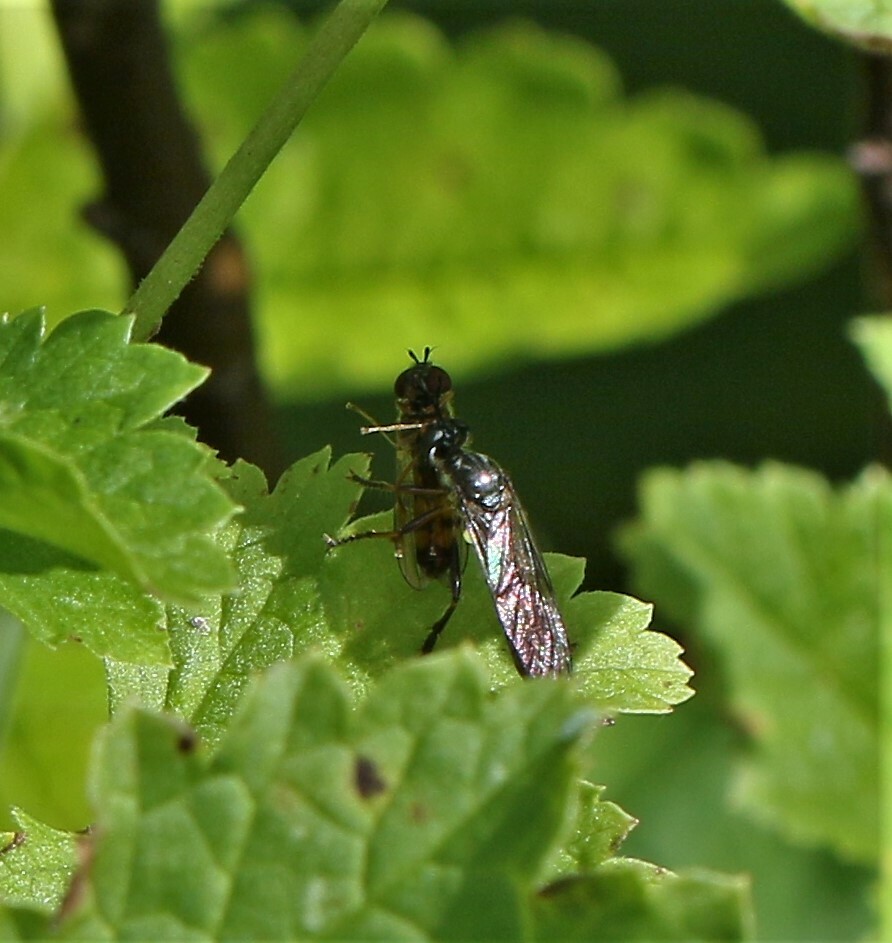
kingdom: Animalia
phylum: Arthropoda
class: Insecta
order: Diptera
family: Asilidae
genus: Dioctria
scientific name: Dioctria hyalipennis
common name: Stripe-legged robberfly
